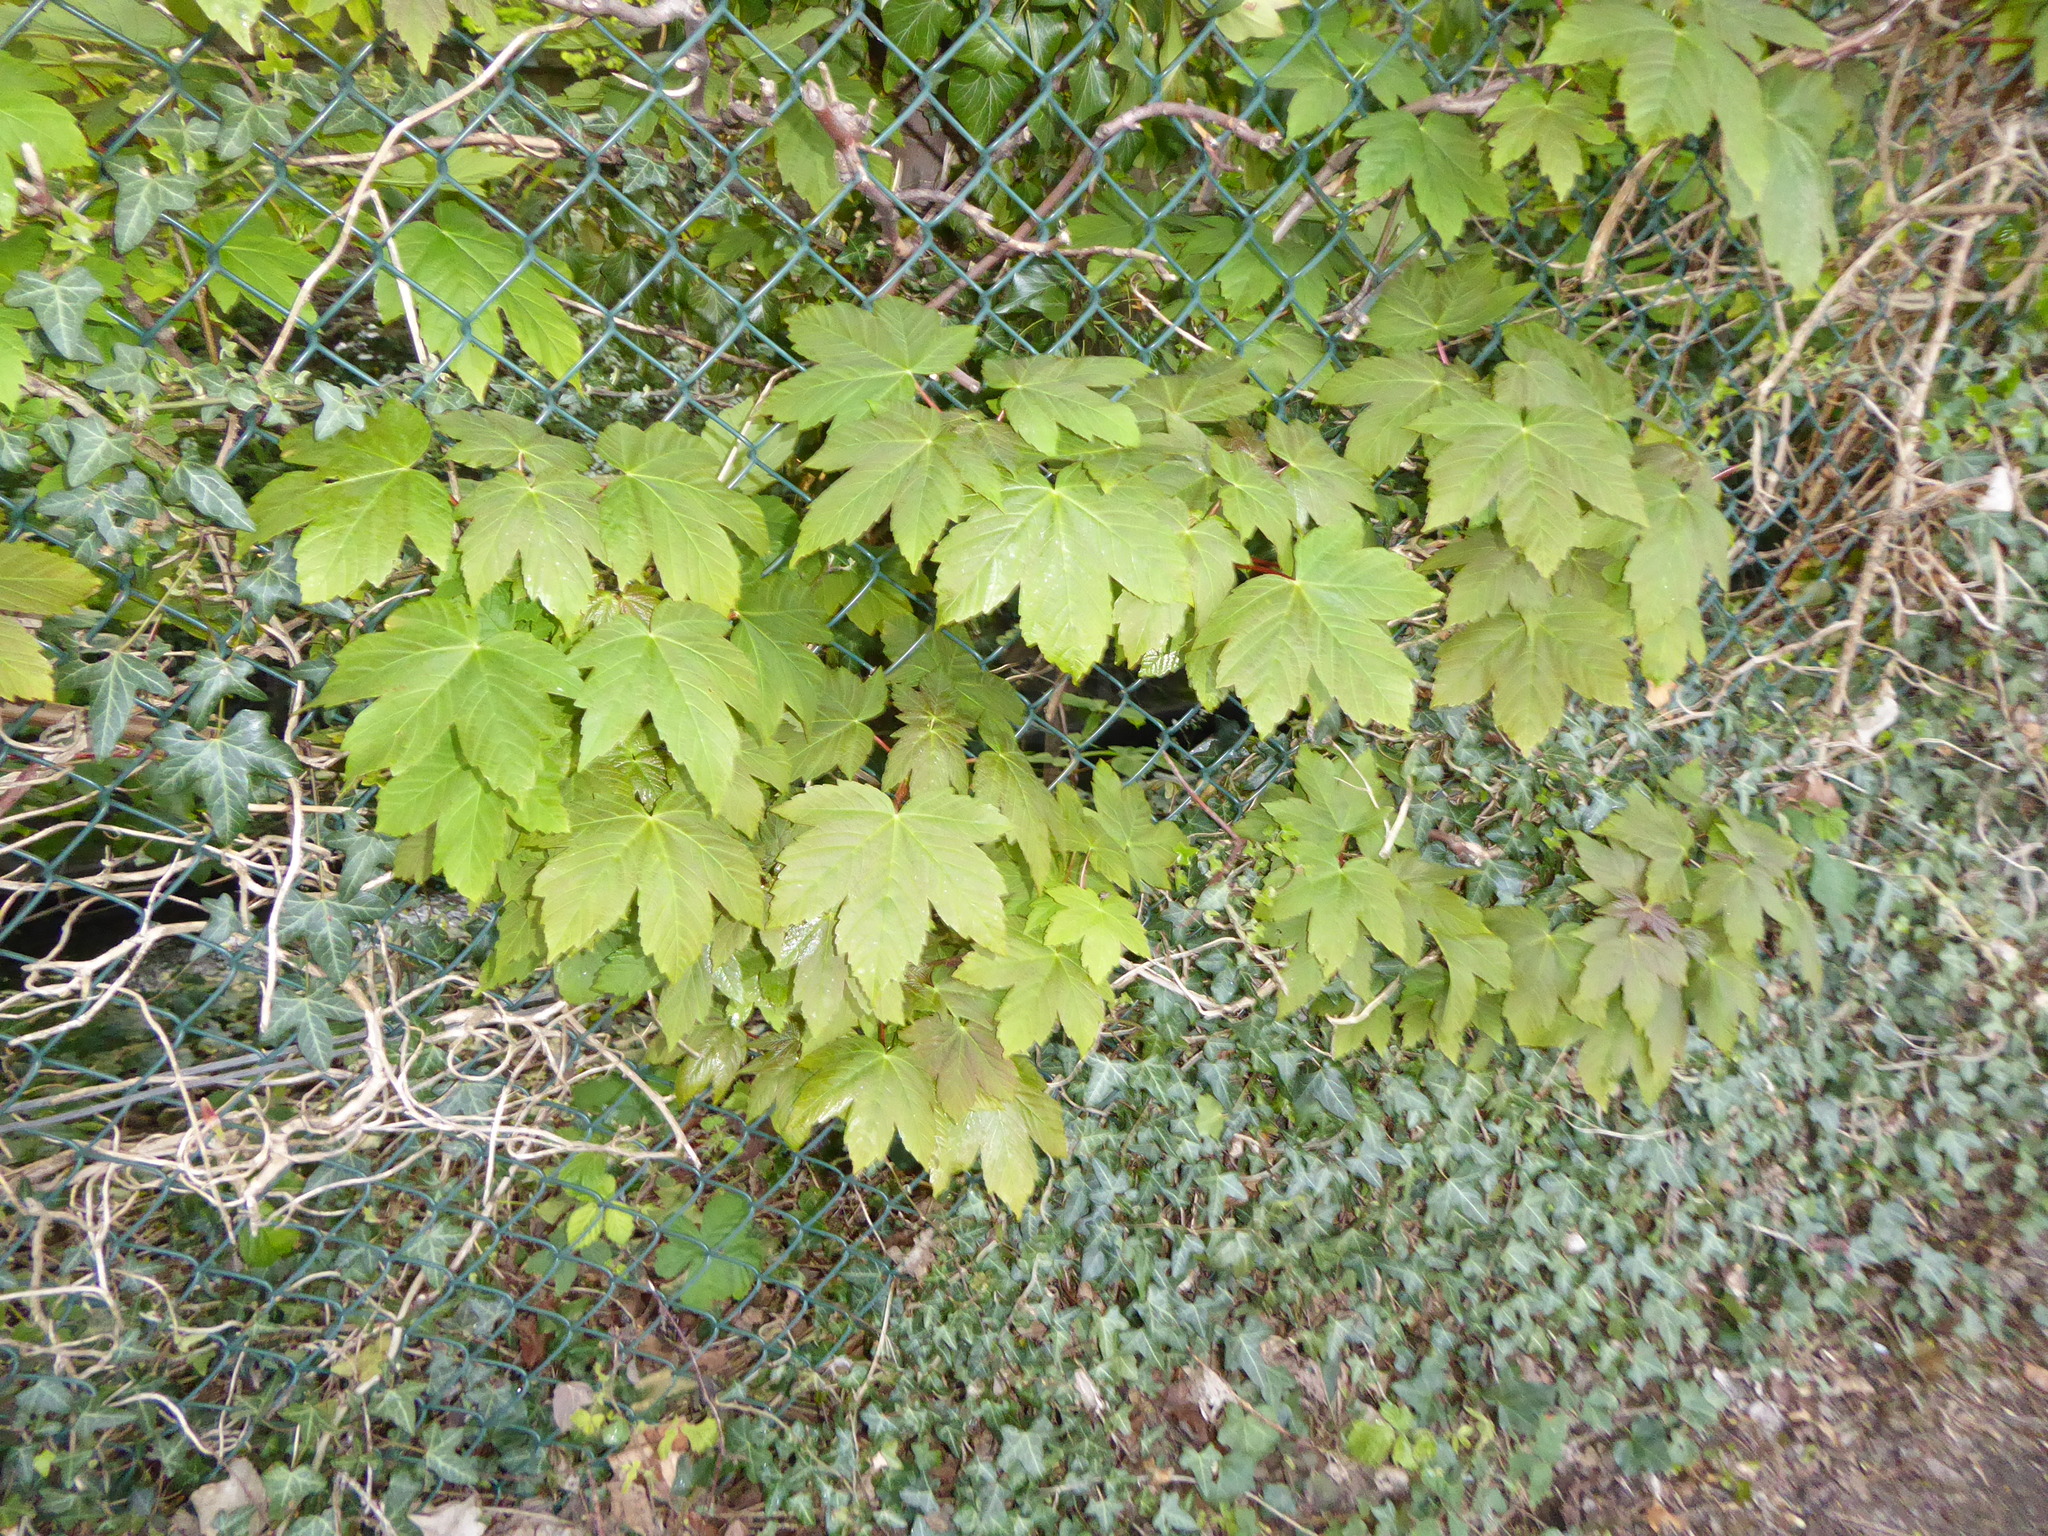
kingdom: Plantae
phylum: Tracheophyta
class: Magnoliopsida
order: Sapindales
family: Sapindaceae
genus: Acer
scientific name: Acer pseudoplatanus
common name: Sycamore
